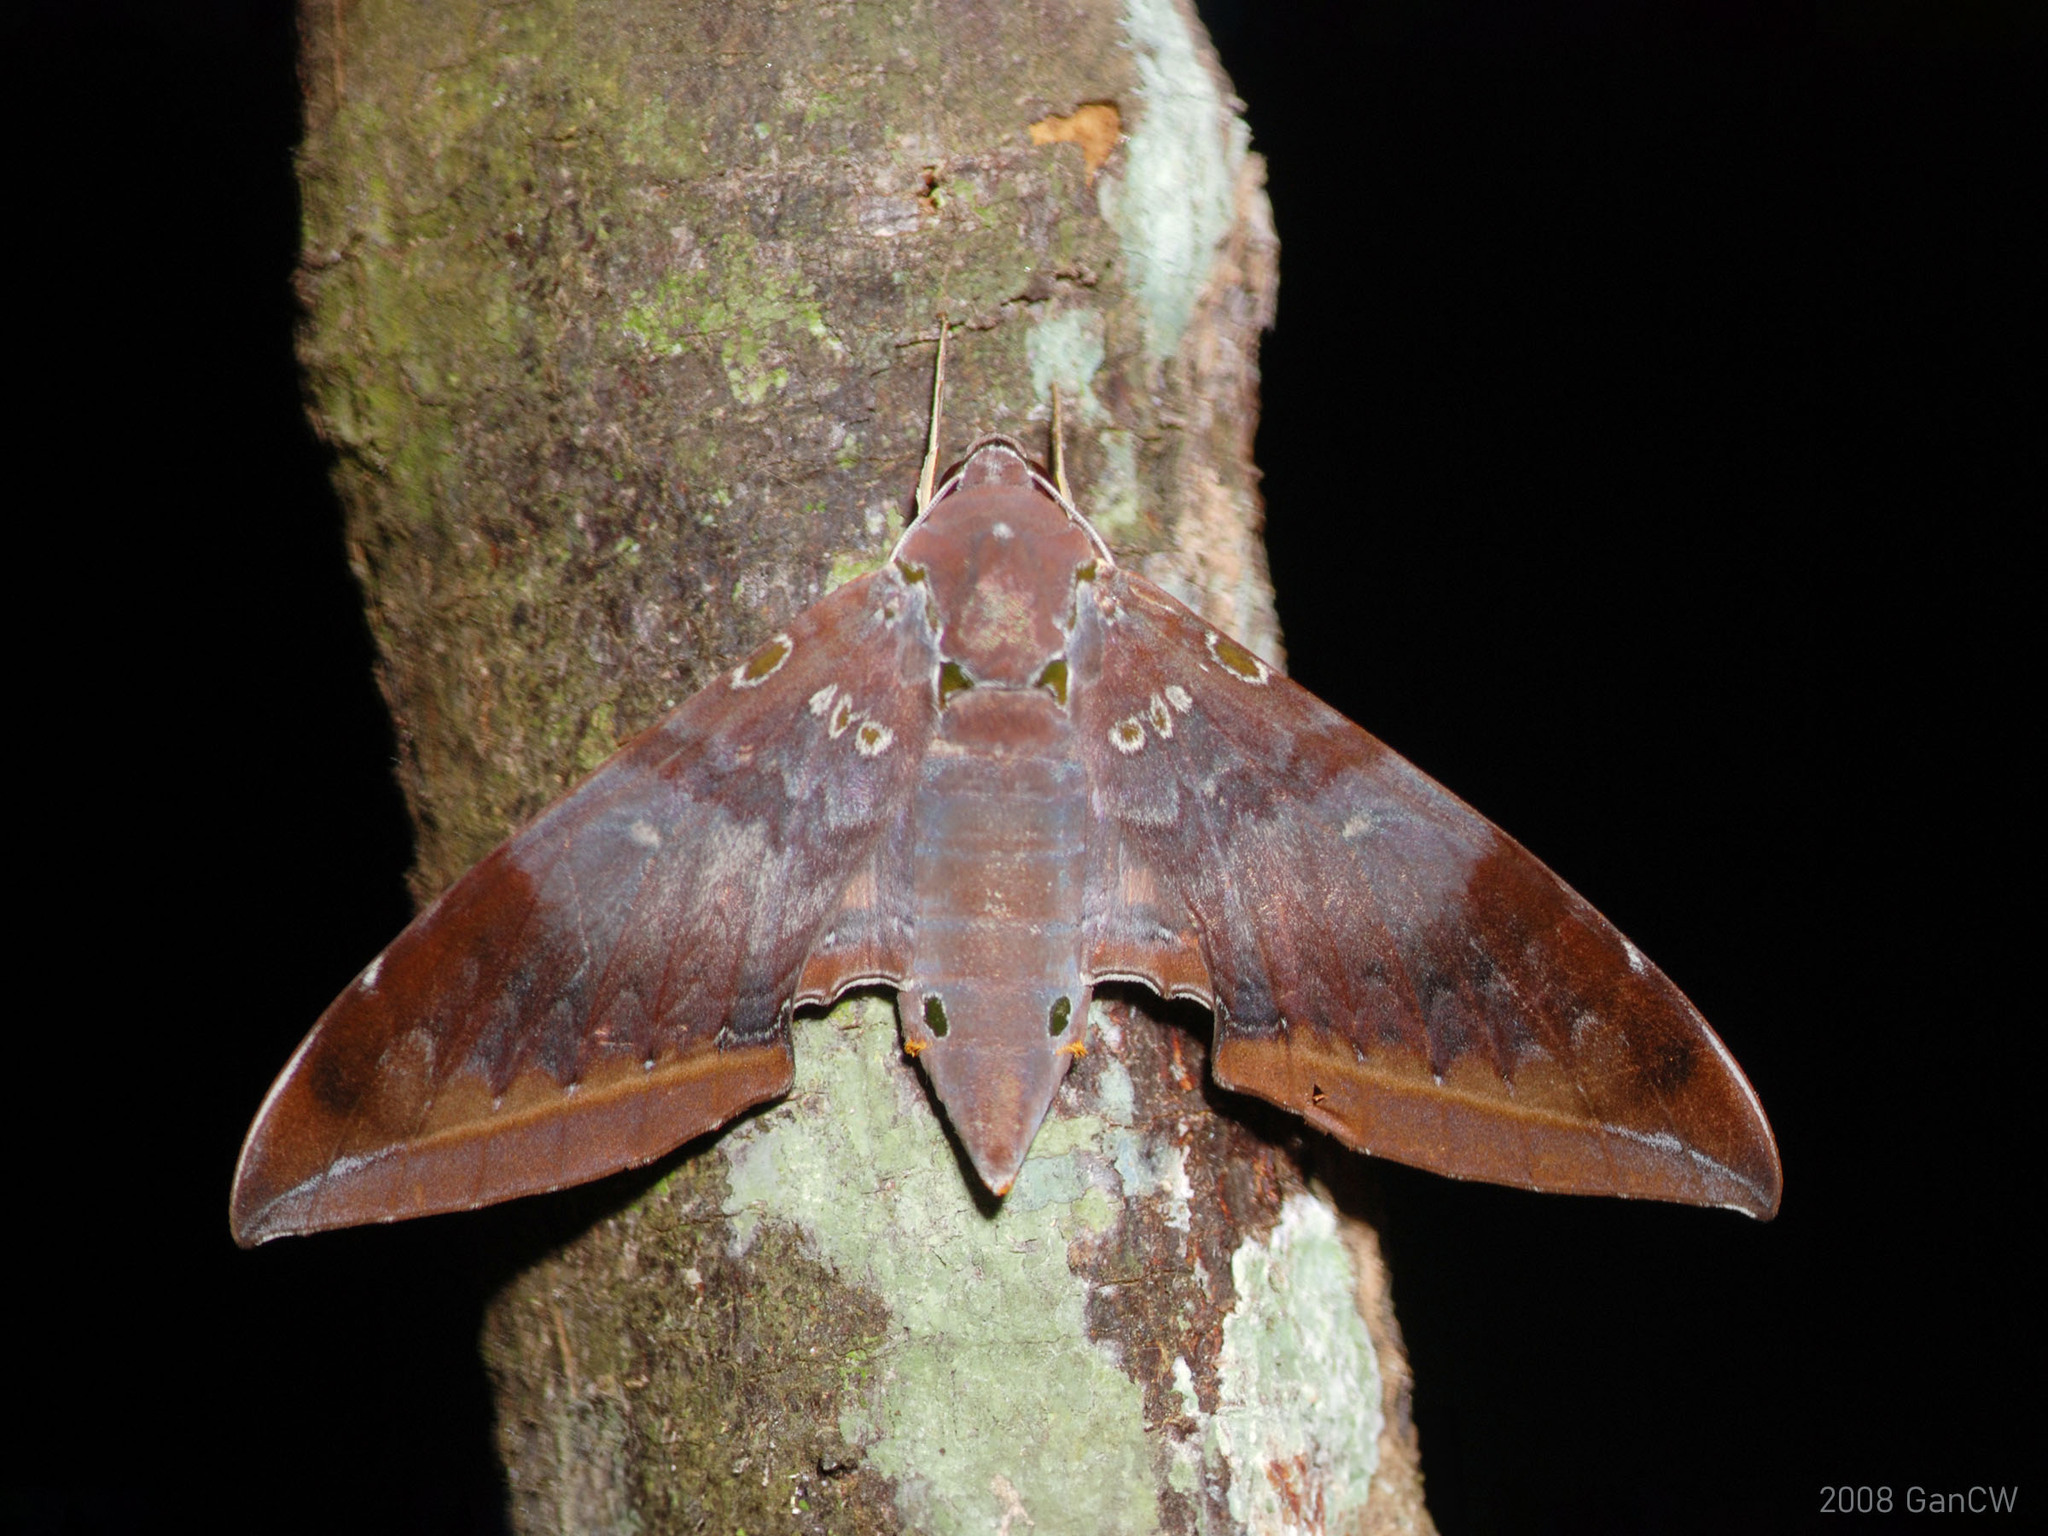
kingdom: Animalia
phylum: Arthropoda
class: Insecta
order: Lepidoptera
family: Sphingidae
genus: Ambulyx
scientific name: Ambulyx moorei
